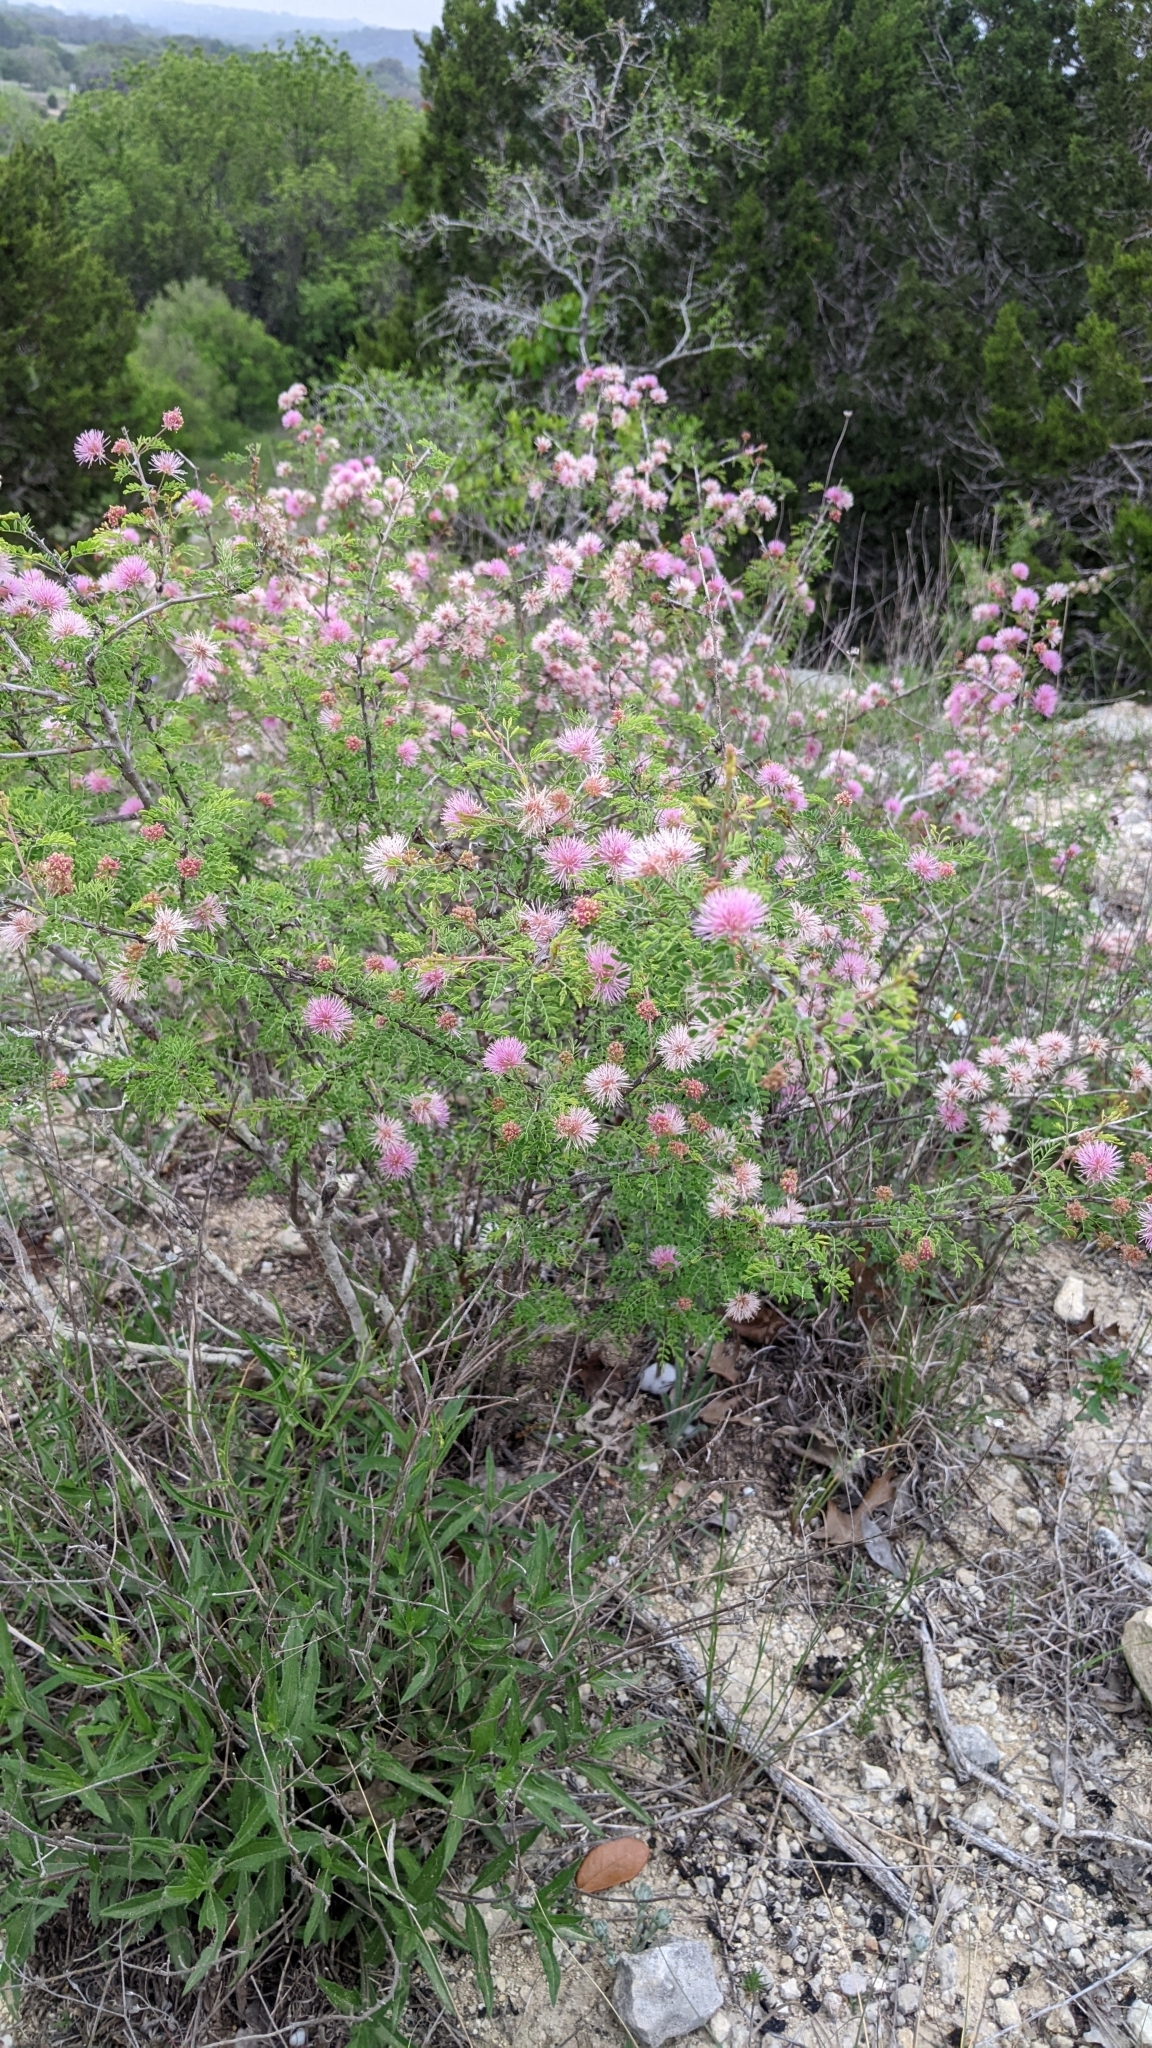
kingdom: Plantae
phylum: Tracheophyta
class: Magnoliopsida
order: Fabales
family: Fabaceae
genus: Mimosa
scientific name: Mimosa borealis
